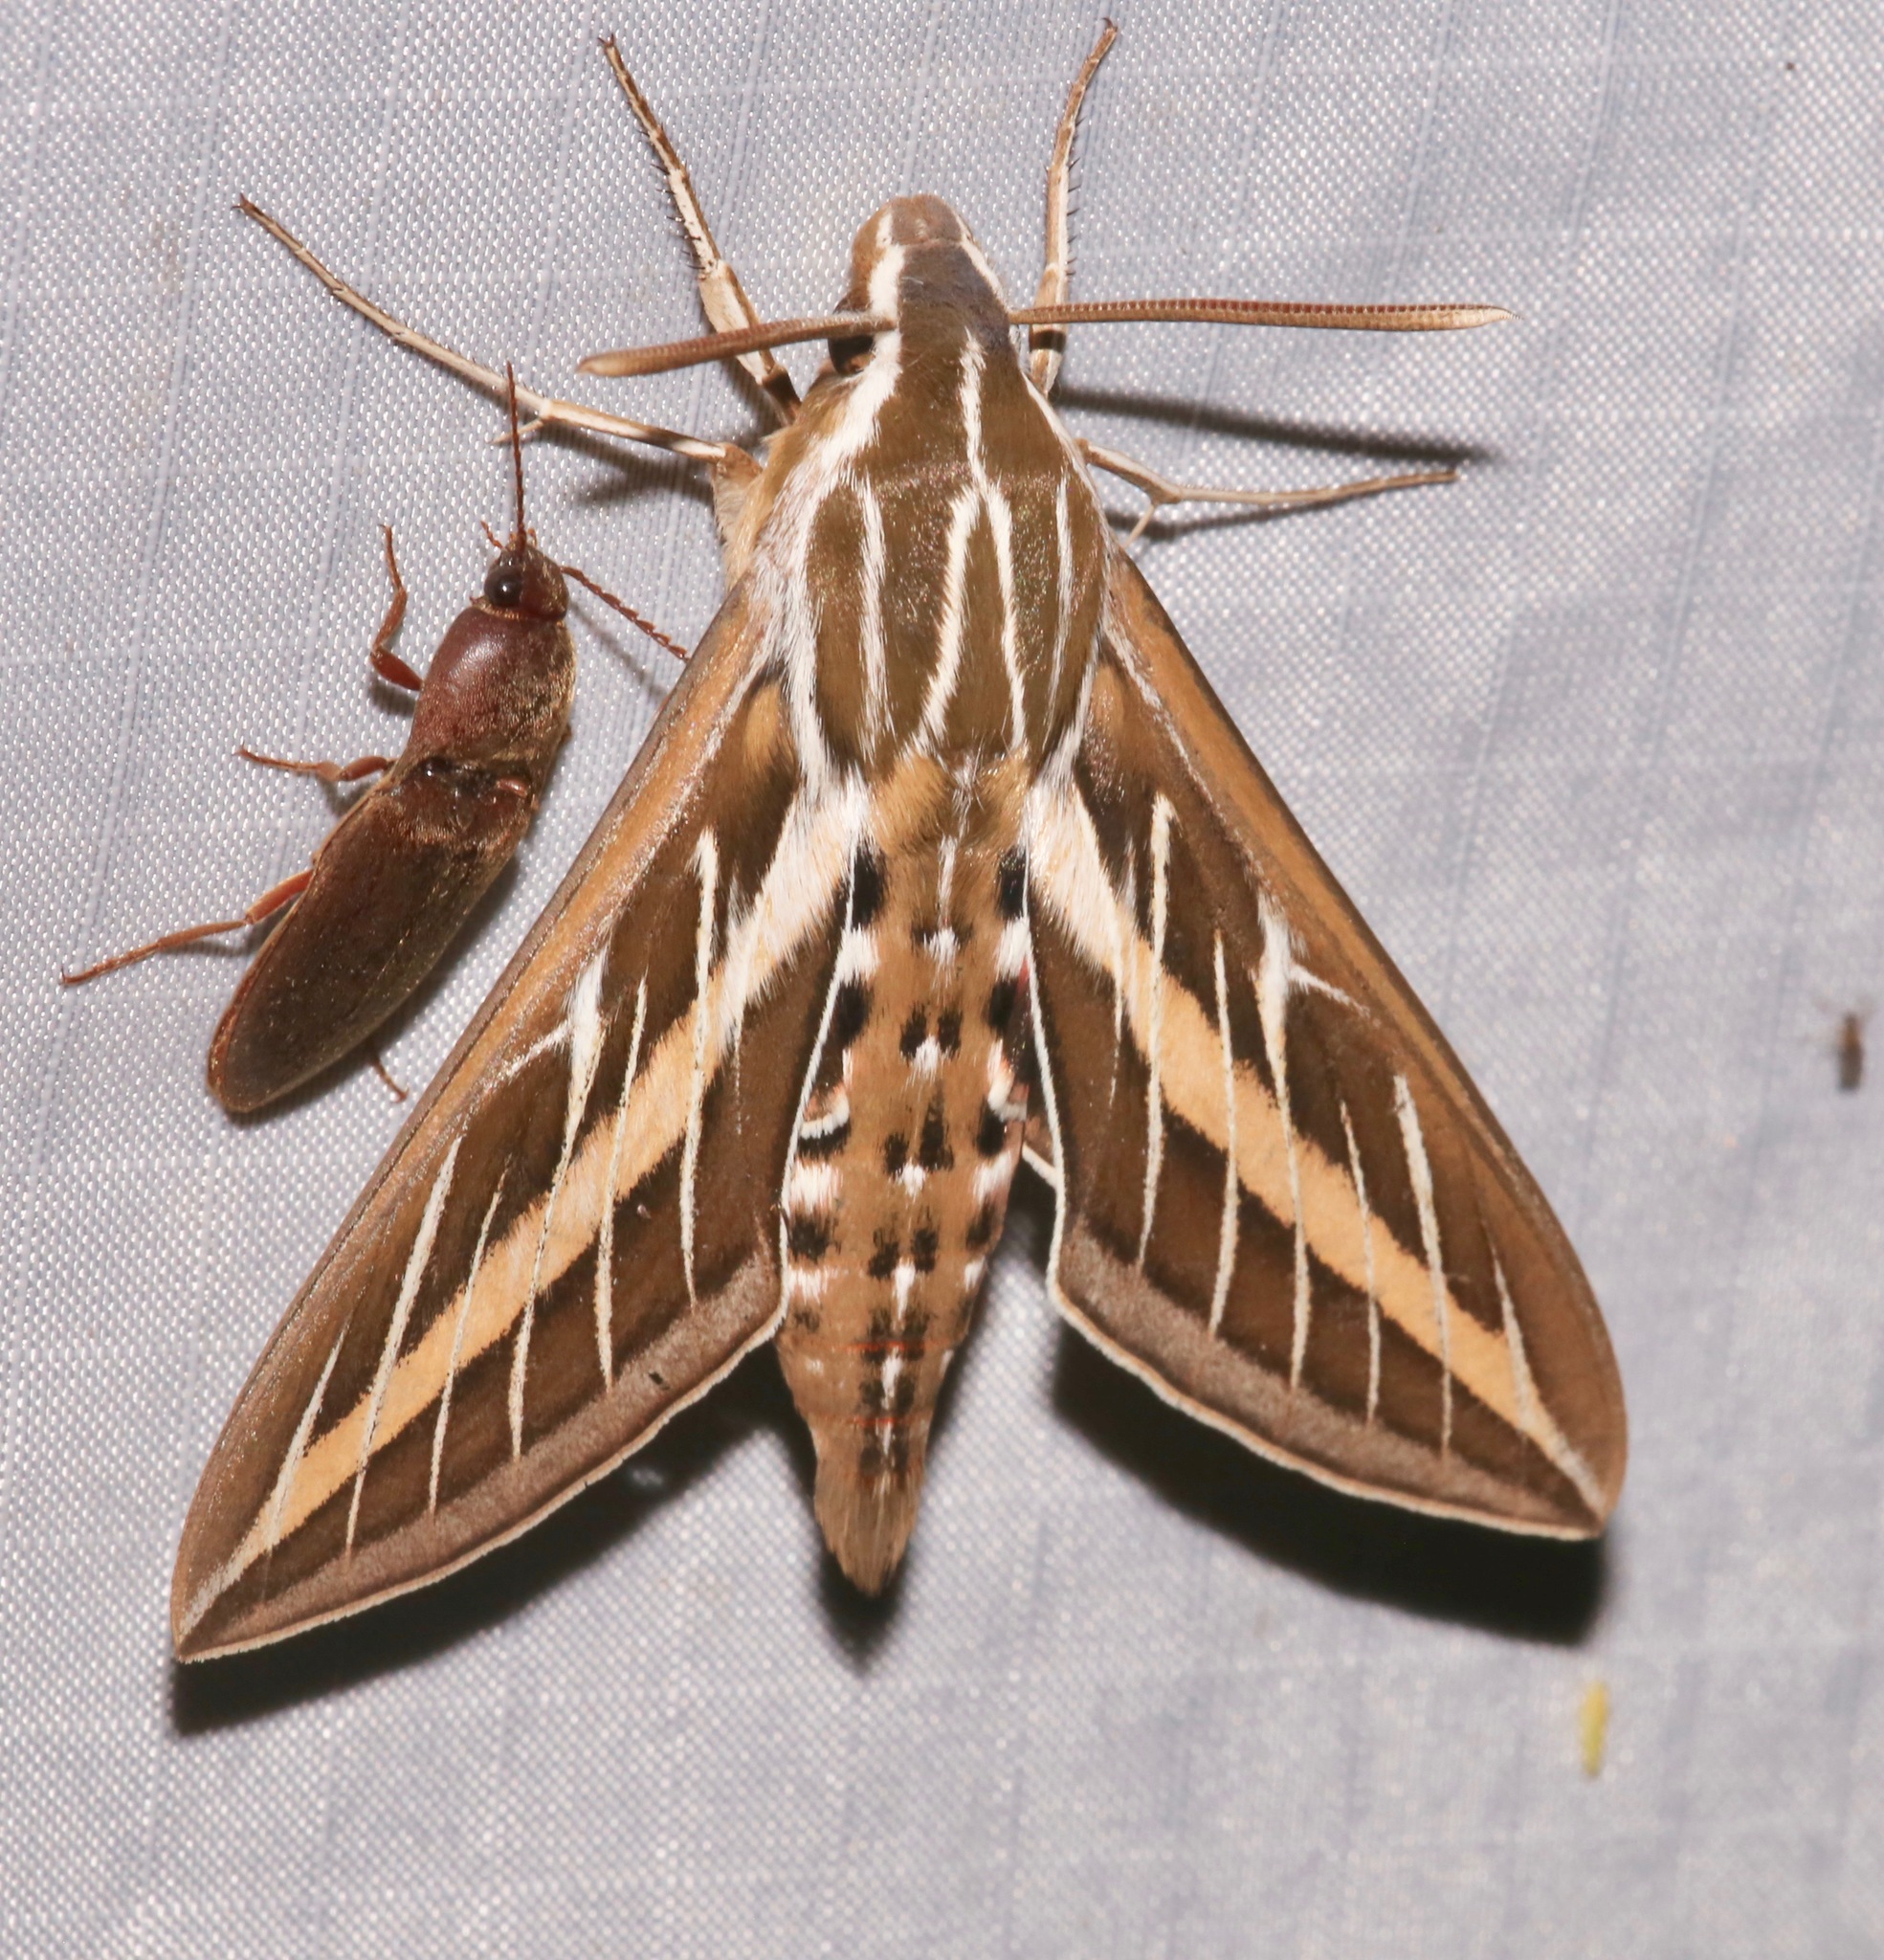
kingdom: Animalia
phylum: Arthropoda
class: Insecta
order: Lepidoptera
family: Sphingidae
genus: Hyles
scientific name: Hyles lineata
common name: White-lined sphinx
